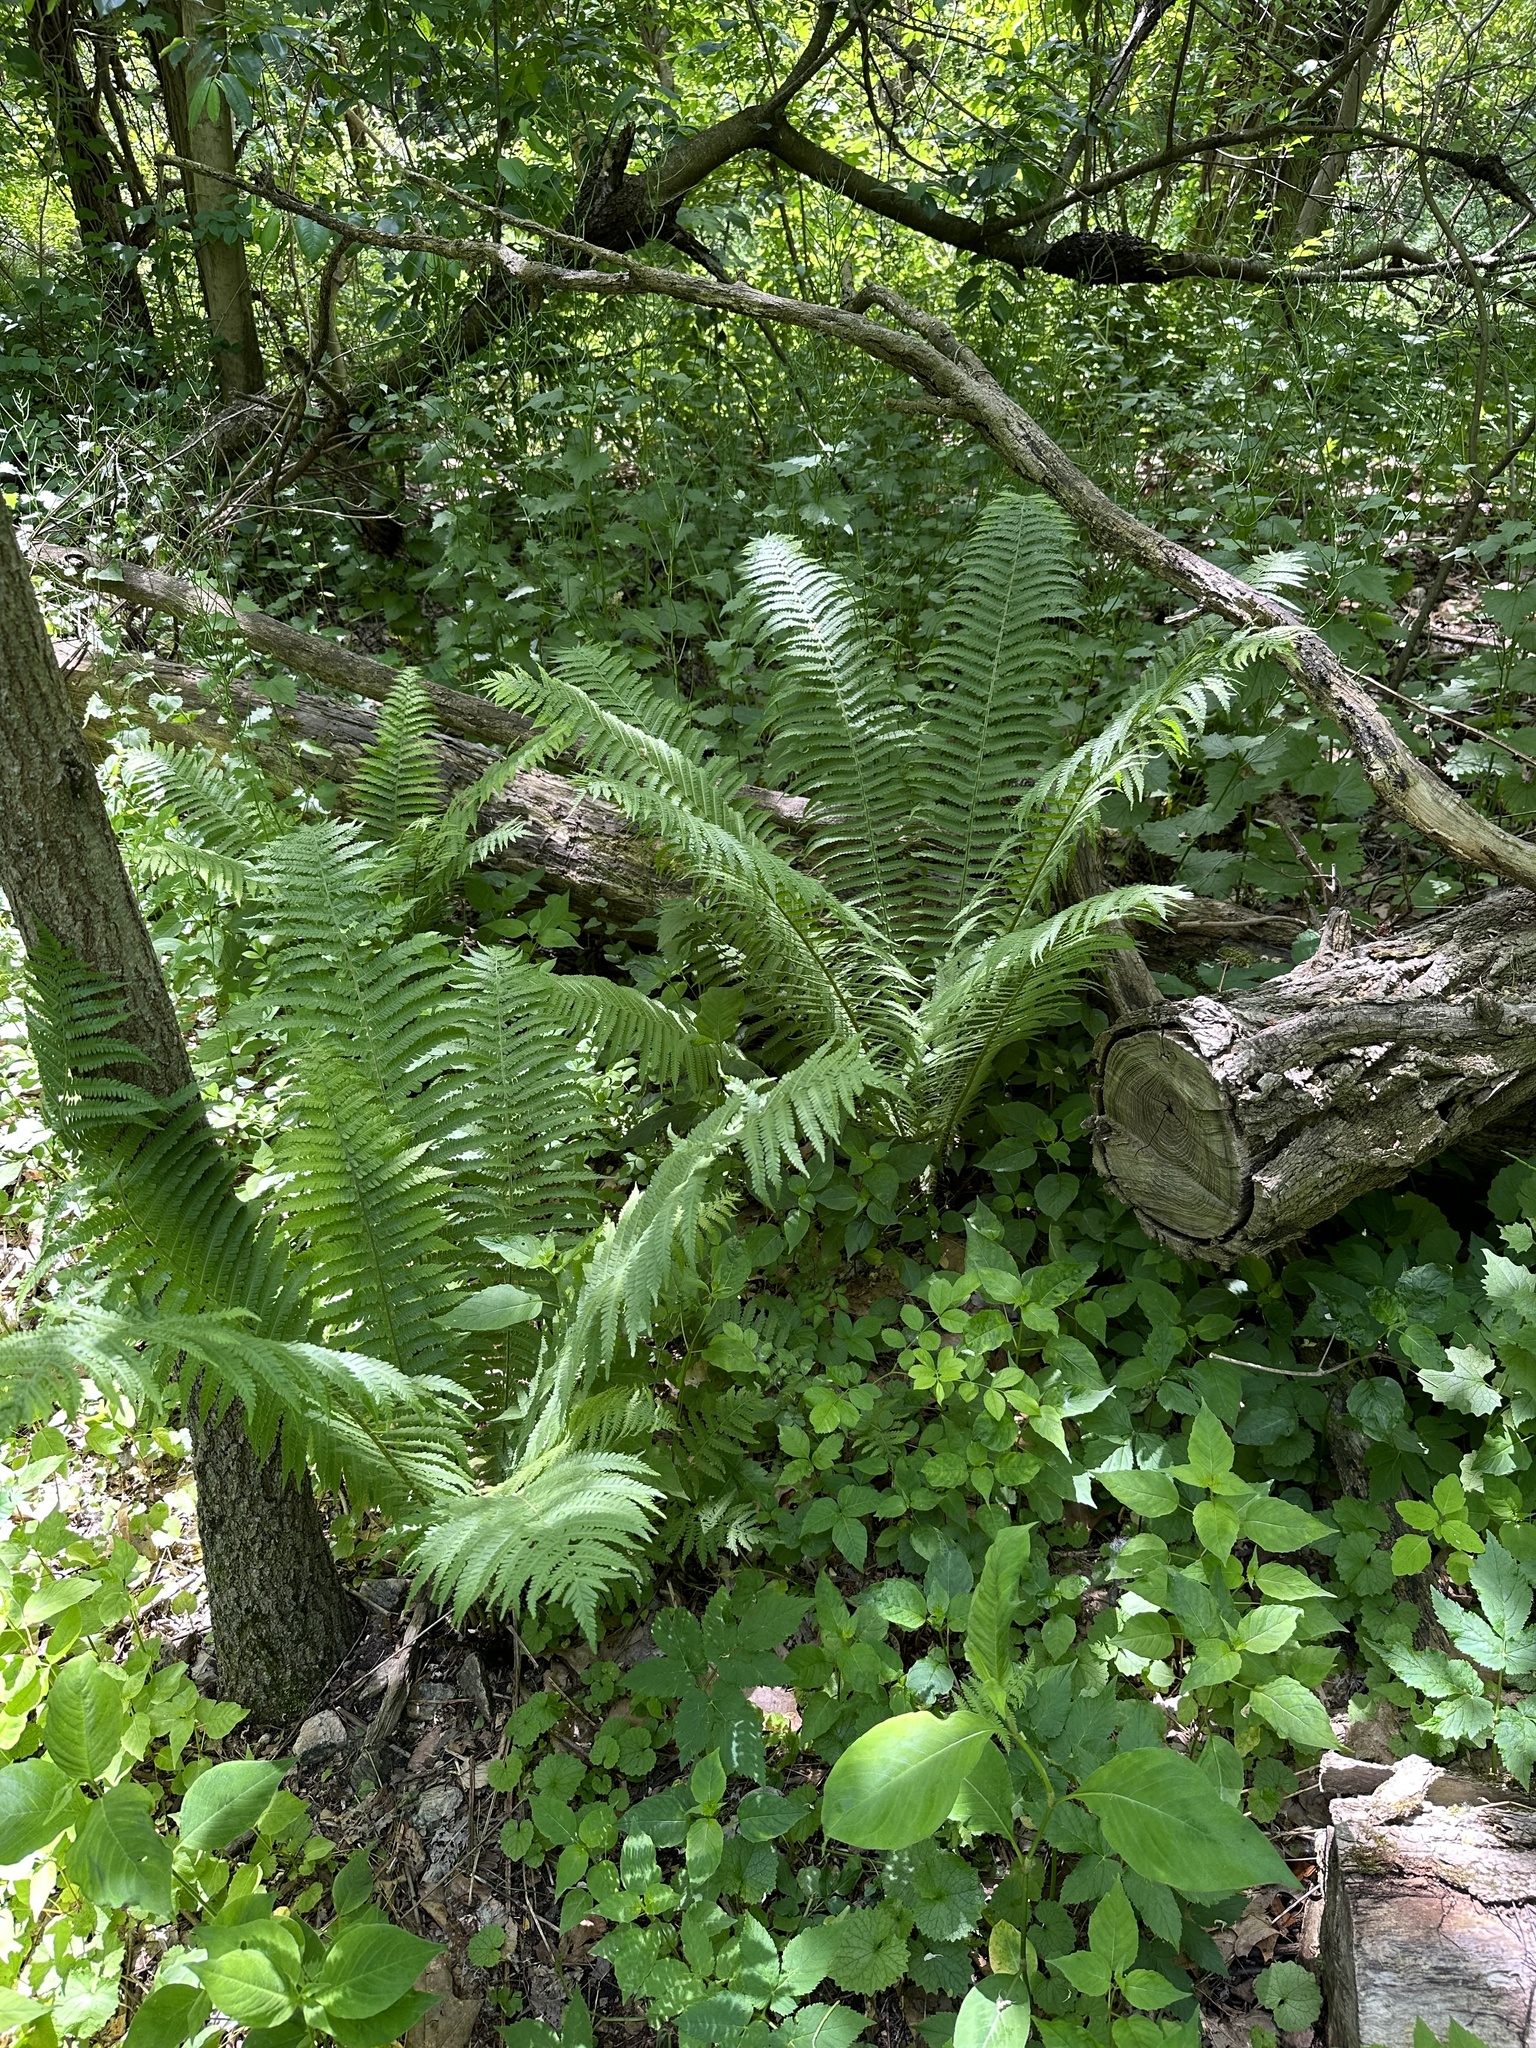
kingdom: Plantae
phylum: Tracheophyta
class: Polypodiopsida
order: Polypodiales
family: Onocleaceae
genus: Matteuccia
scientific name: Matteuccia struthiopteris
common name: Ostrich fern
